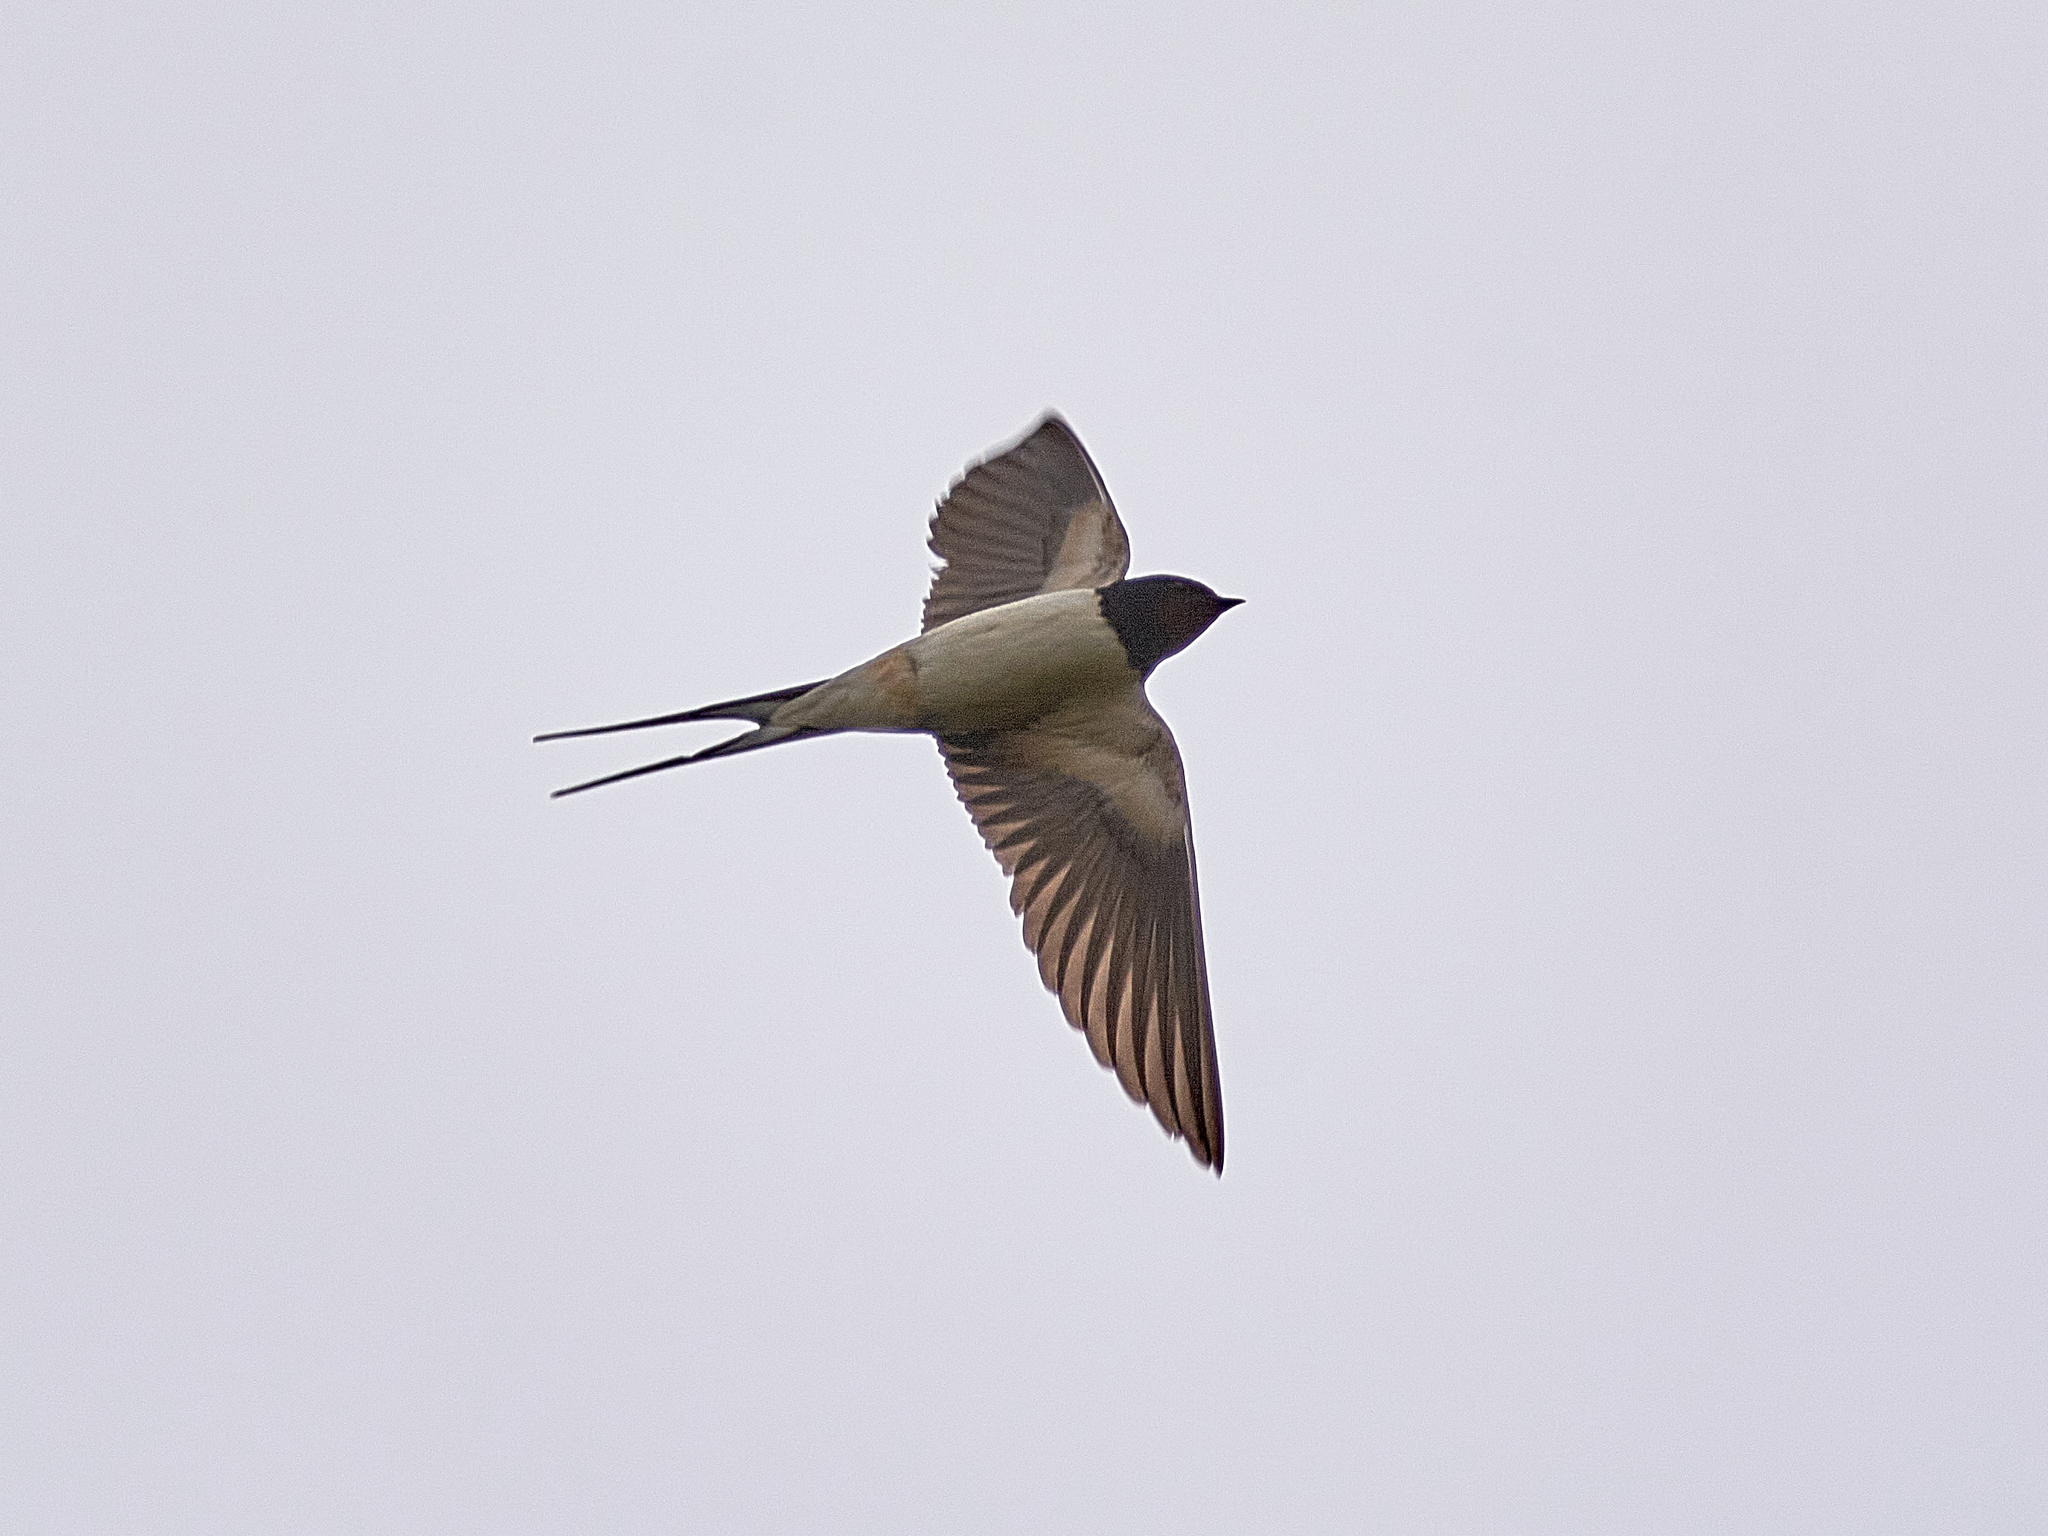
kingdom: Animalia
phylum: Chordata
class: Aves
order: Passeriformes
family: Hirundinidae
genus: Hirundo
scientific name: Hirundo rustica
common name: Barn swallow
